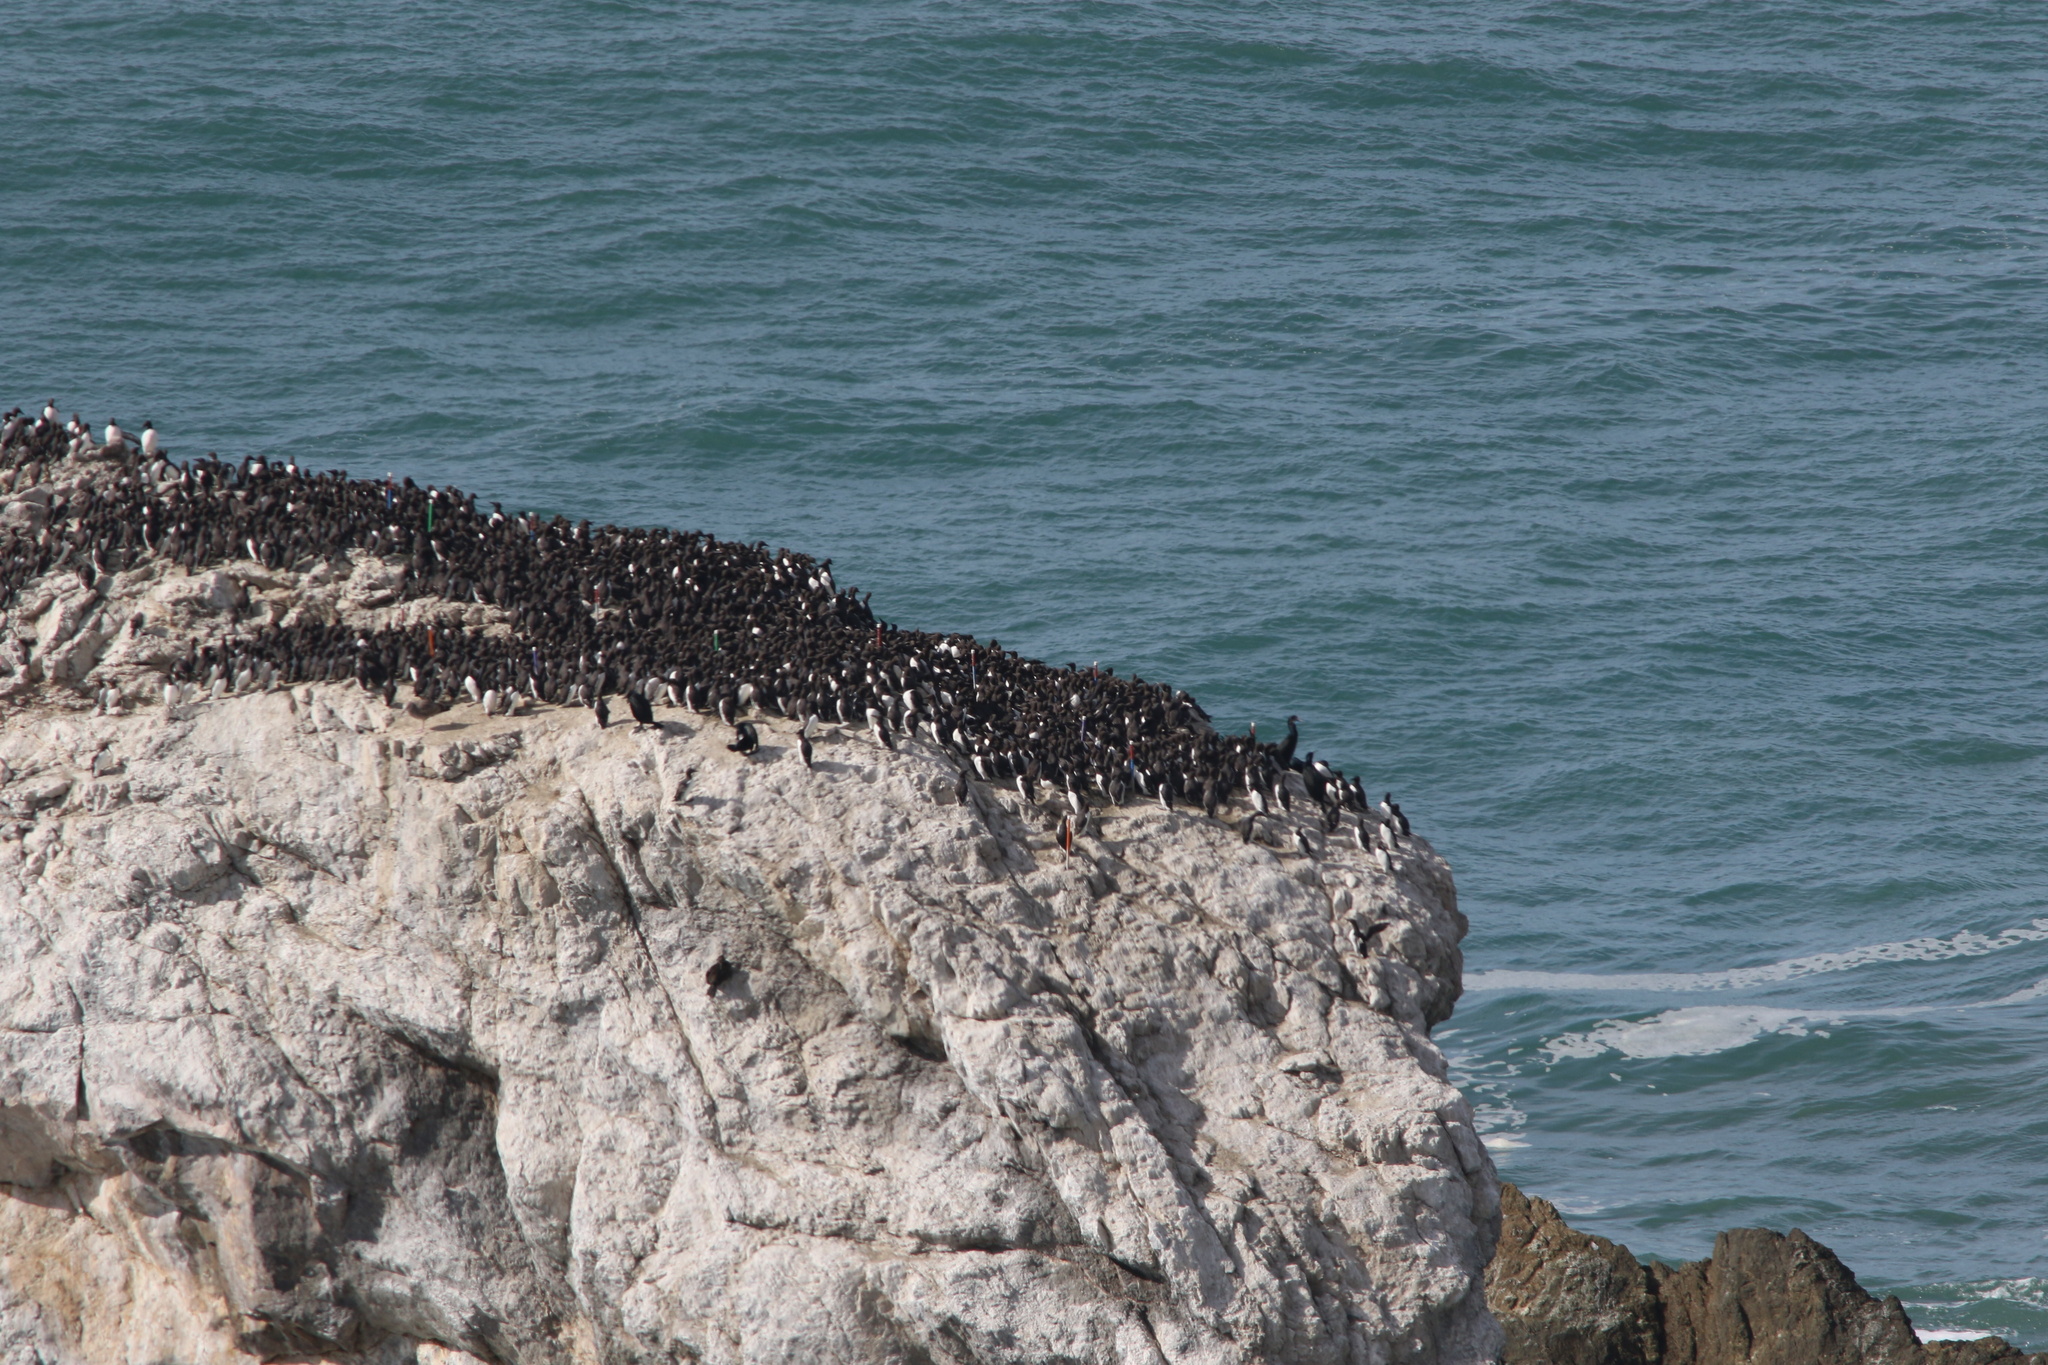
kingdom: Animalia
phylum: Chordata
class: Aves
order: Charadriiformes
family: Alcidae
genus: Uria
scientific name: Uria aalge
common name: Common murre
